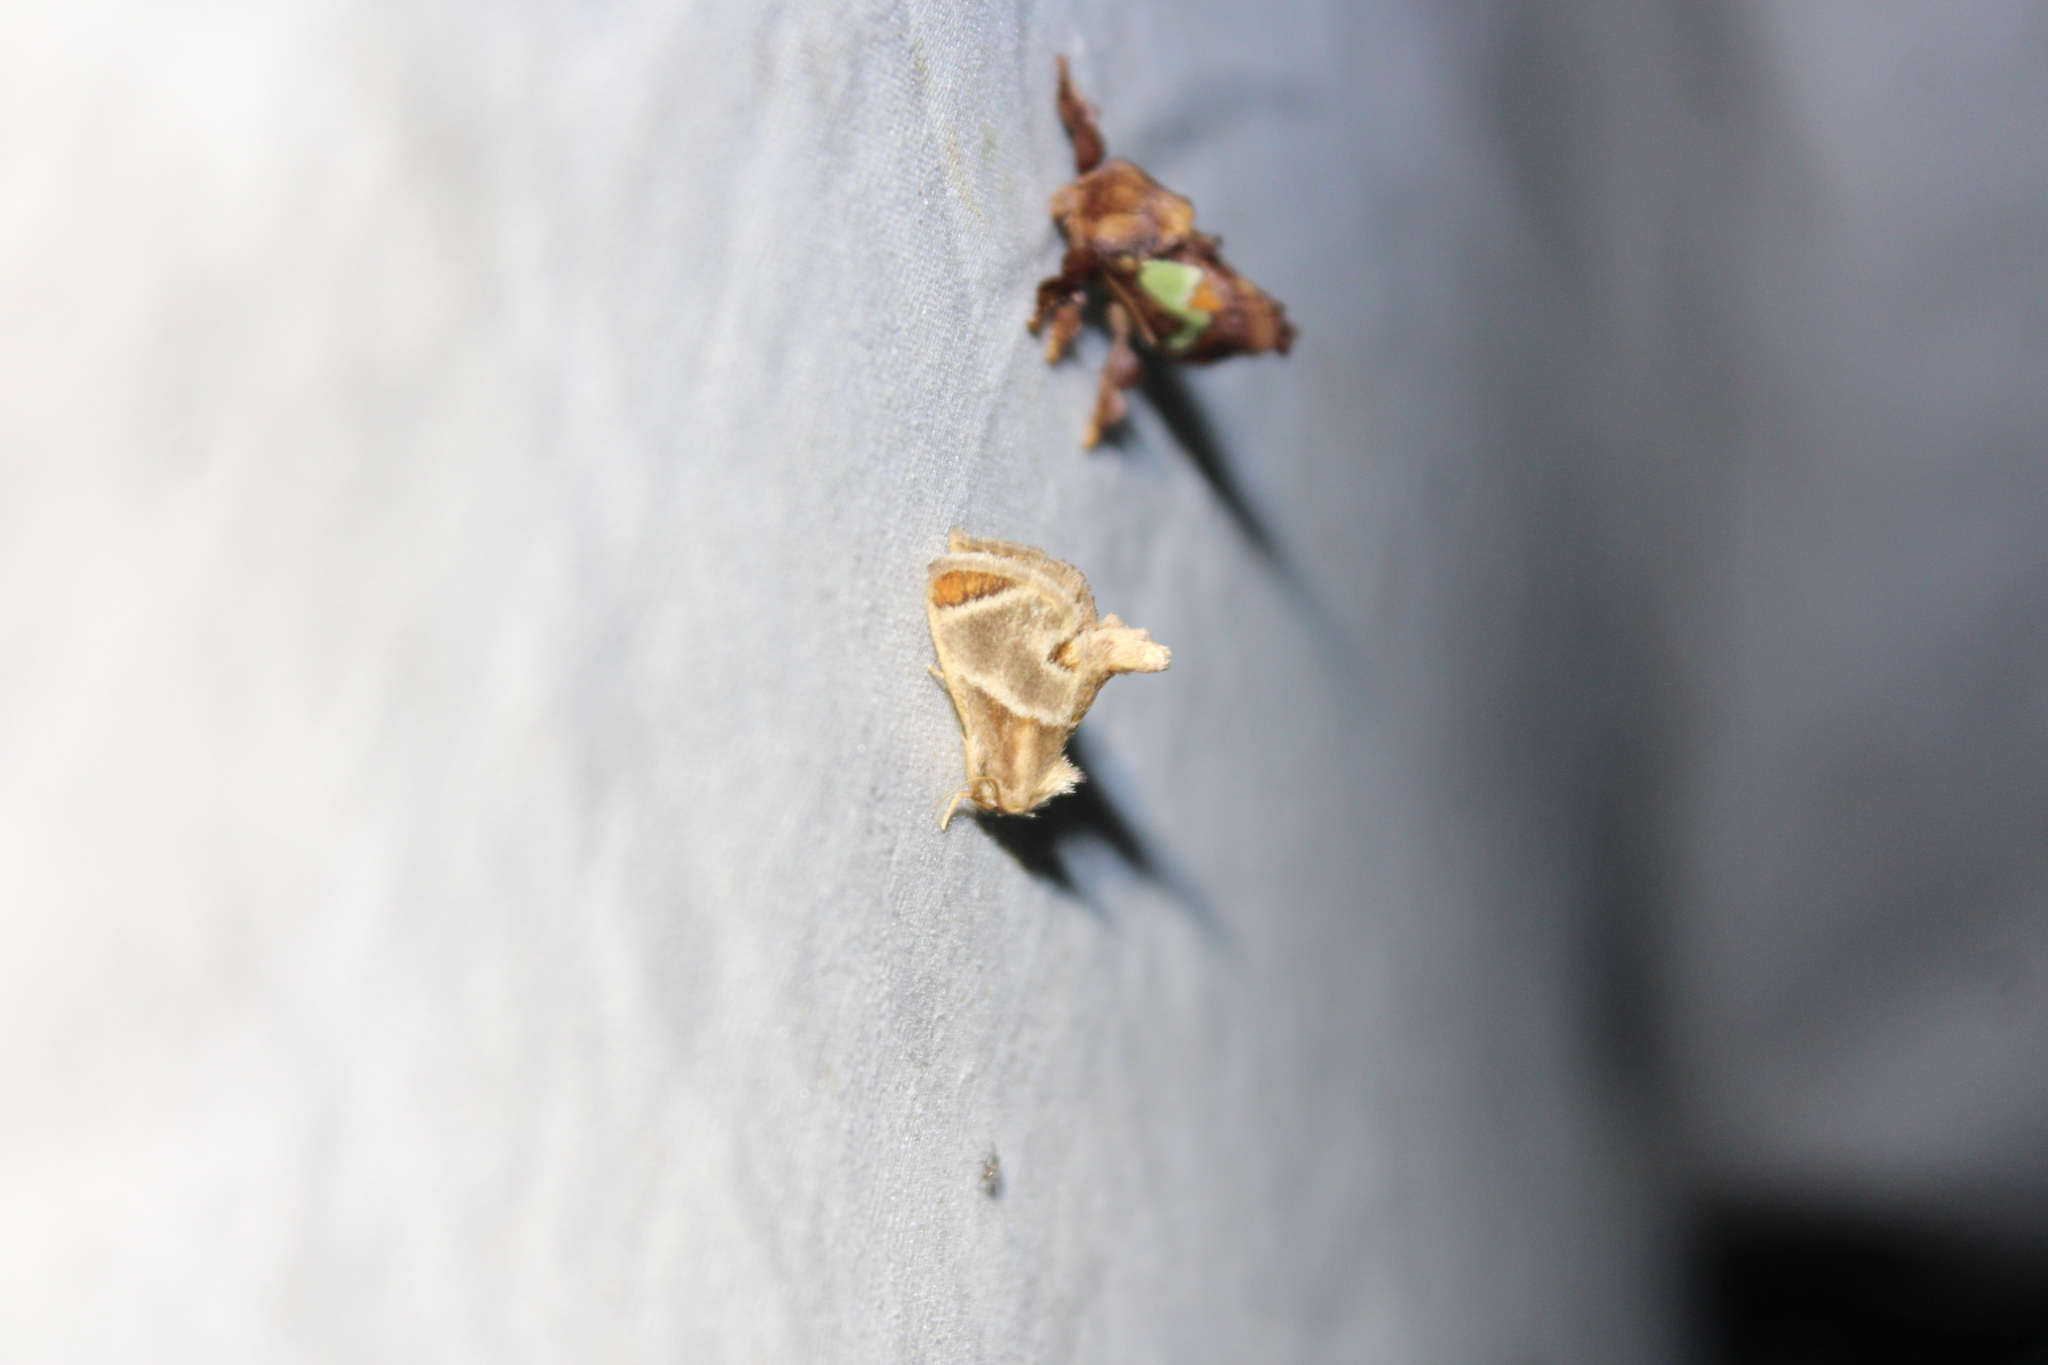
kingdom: Animalia
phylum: Arthropoda
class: Insecta
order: Lepidoptera
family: Limacodidae
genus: Apoda
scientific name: Apoda biguttata
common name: Shagreened slug moth
